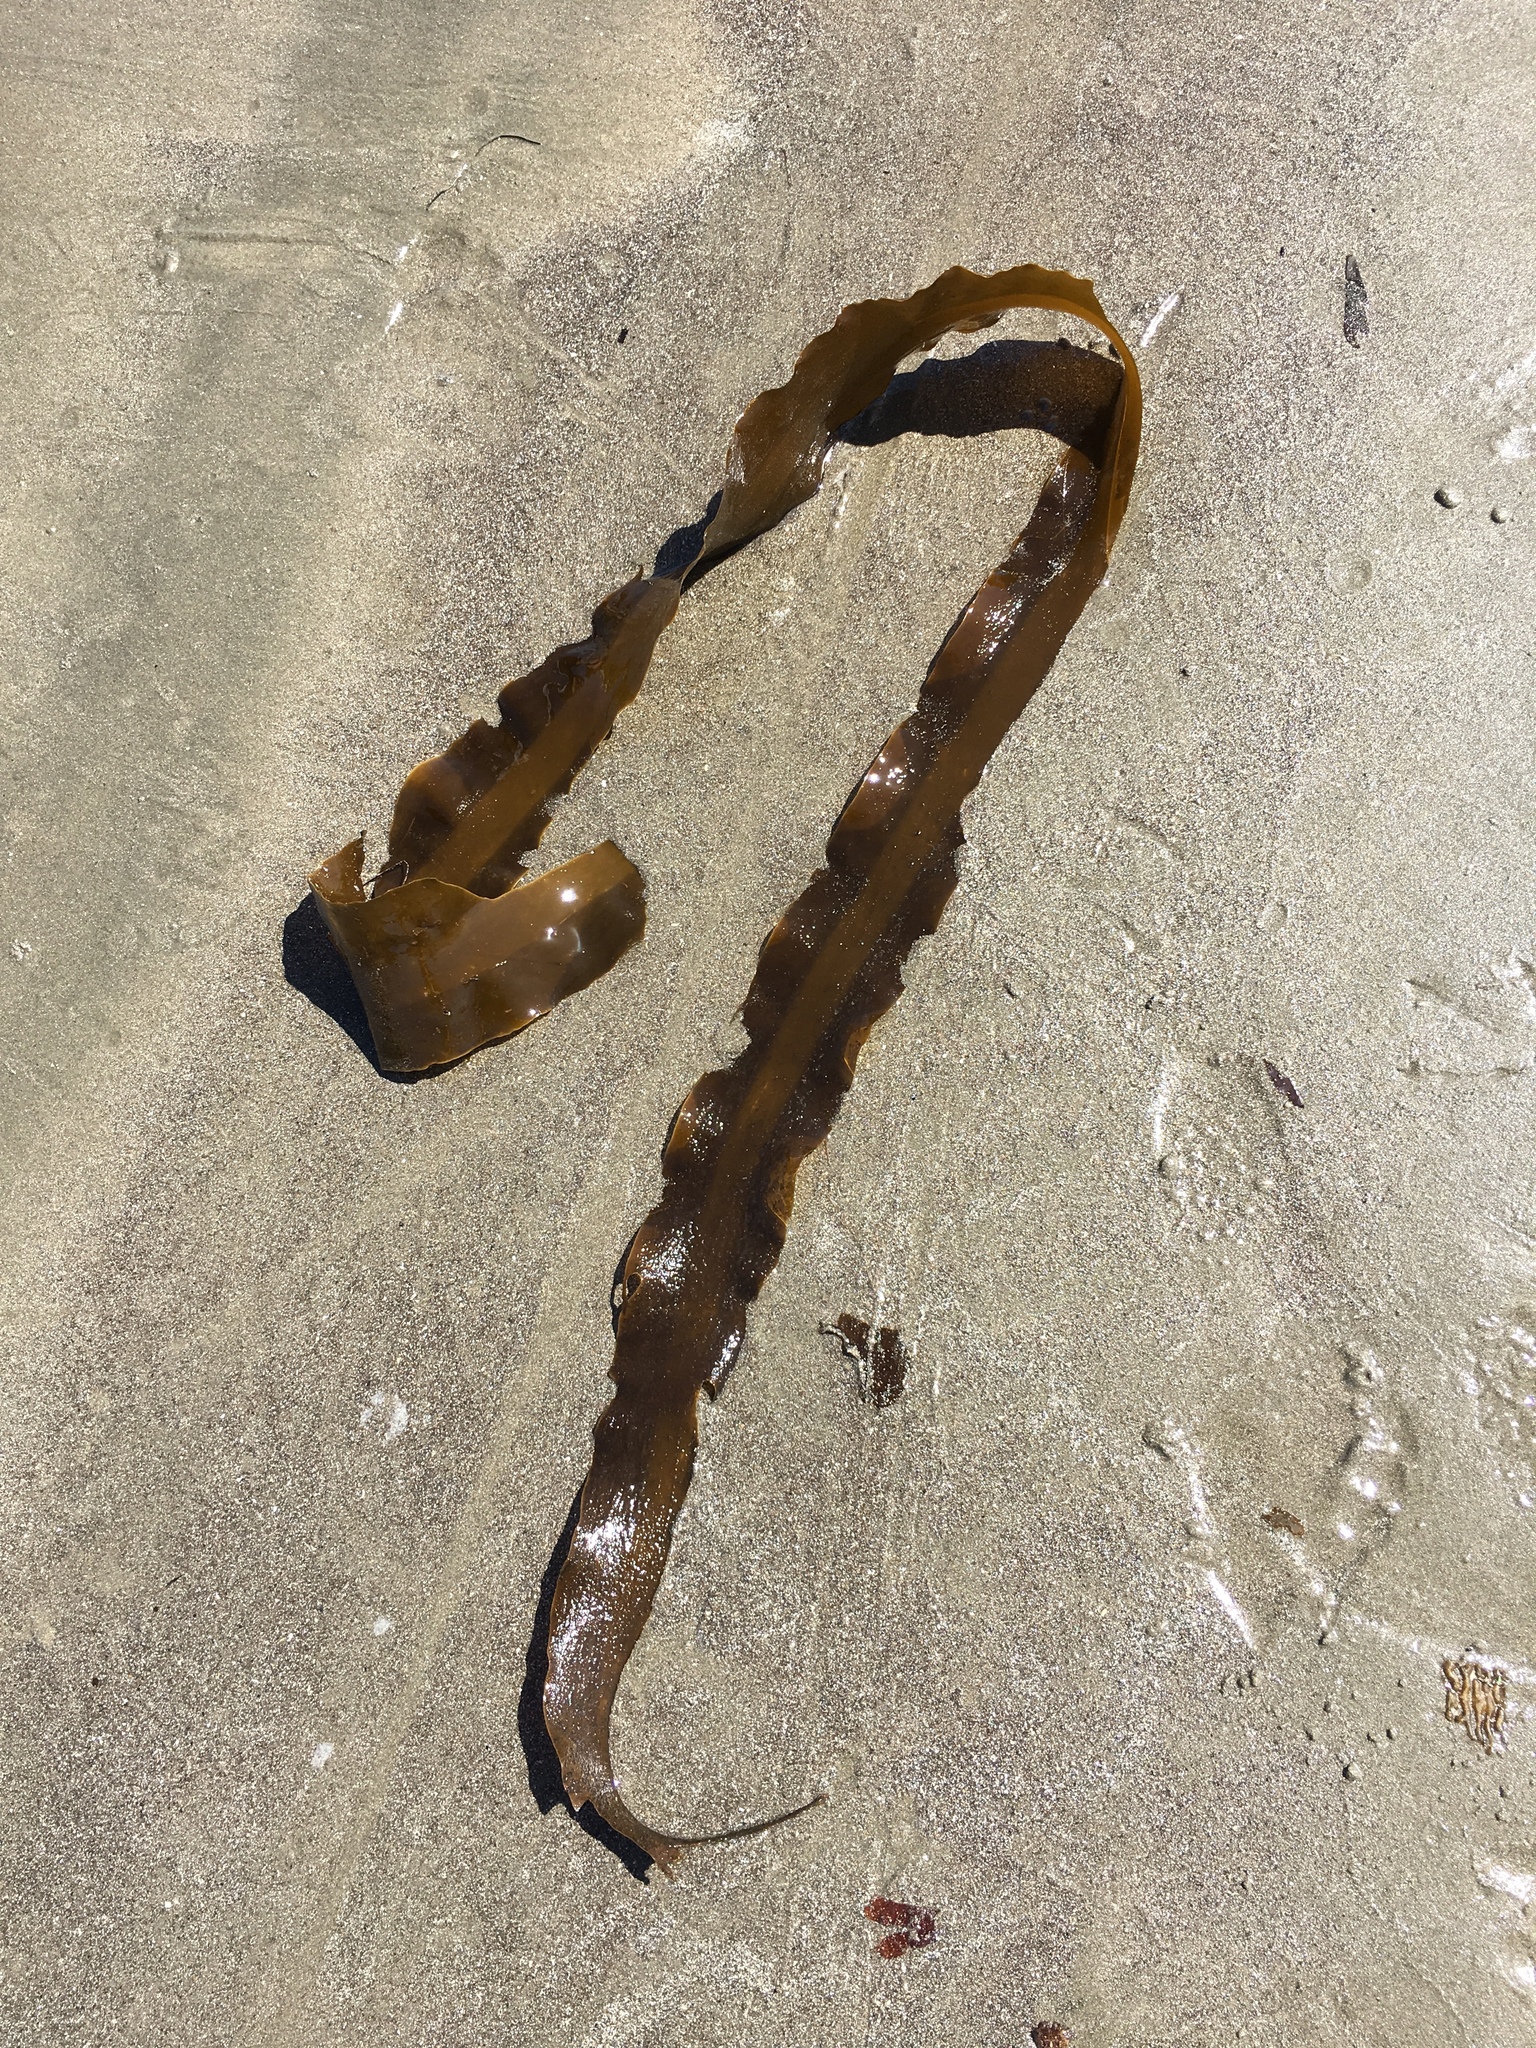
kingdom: Chromista
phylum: Ochrophyta
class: Phaeophyceae
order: Laminariales
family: Alariaceae
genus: Pterygophora
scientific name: Pterygophora californica
